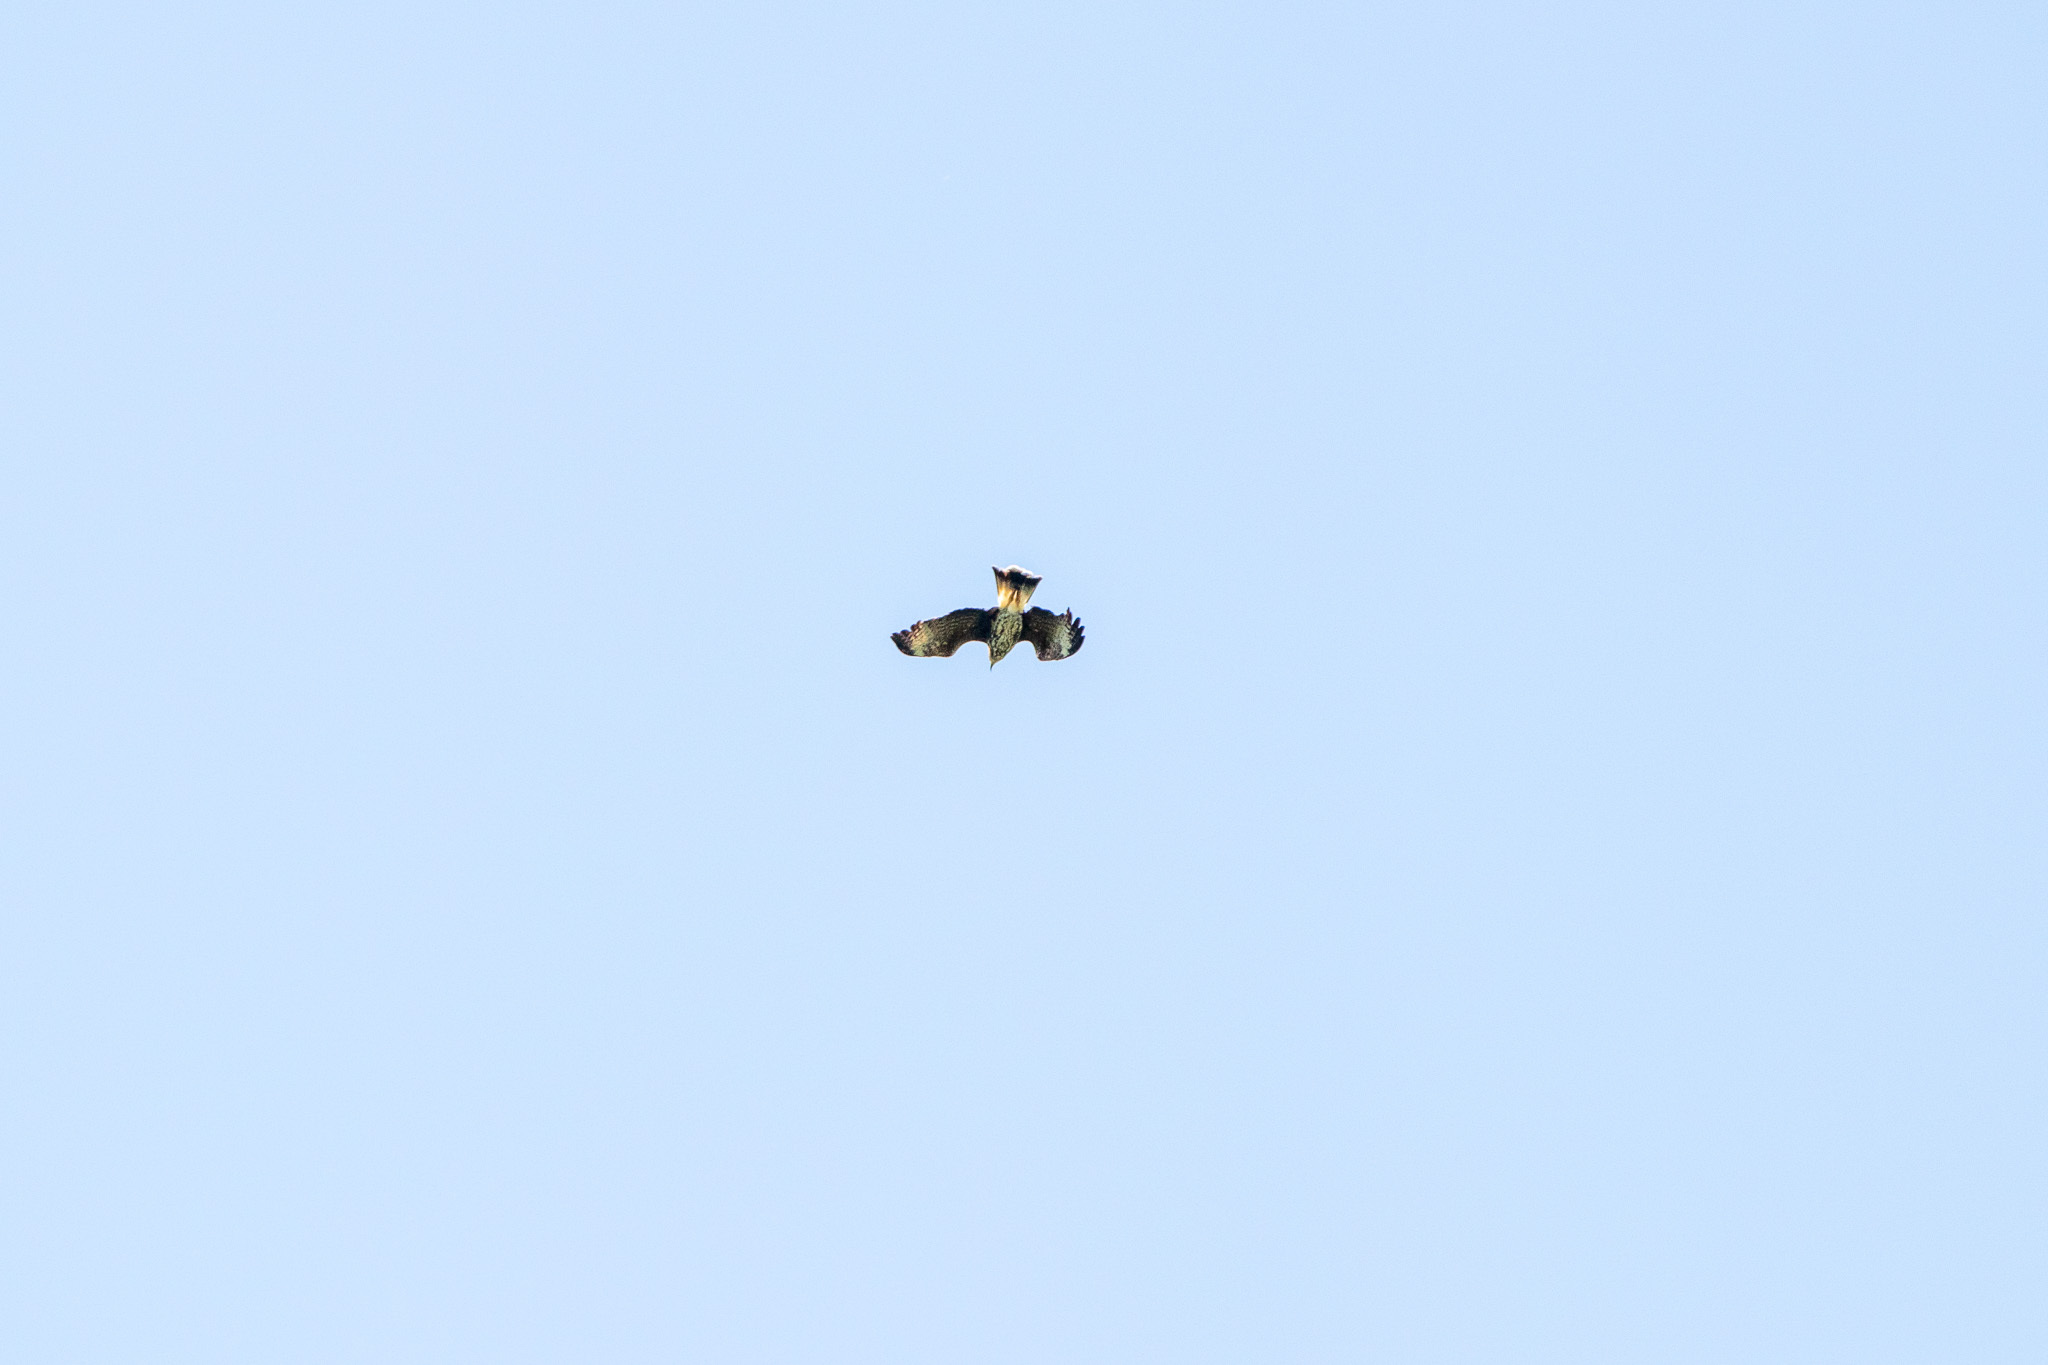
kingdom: Animalia
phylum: Chordata
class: Aves
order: Accipitriformes
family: Accipitridae
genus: Rostrhamus
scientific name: Rostrhamus sociabilis
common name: Snail kite
